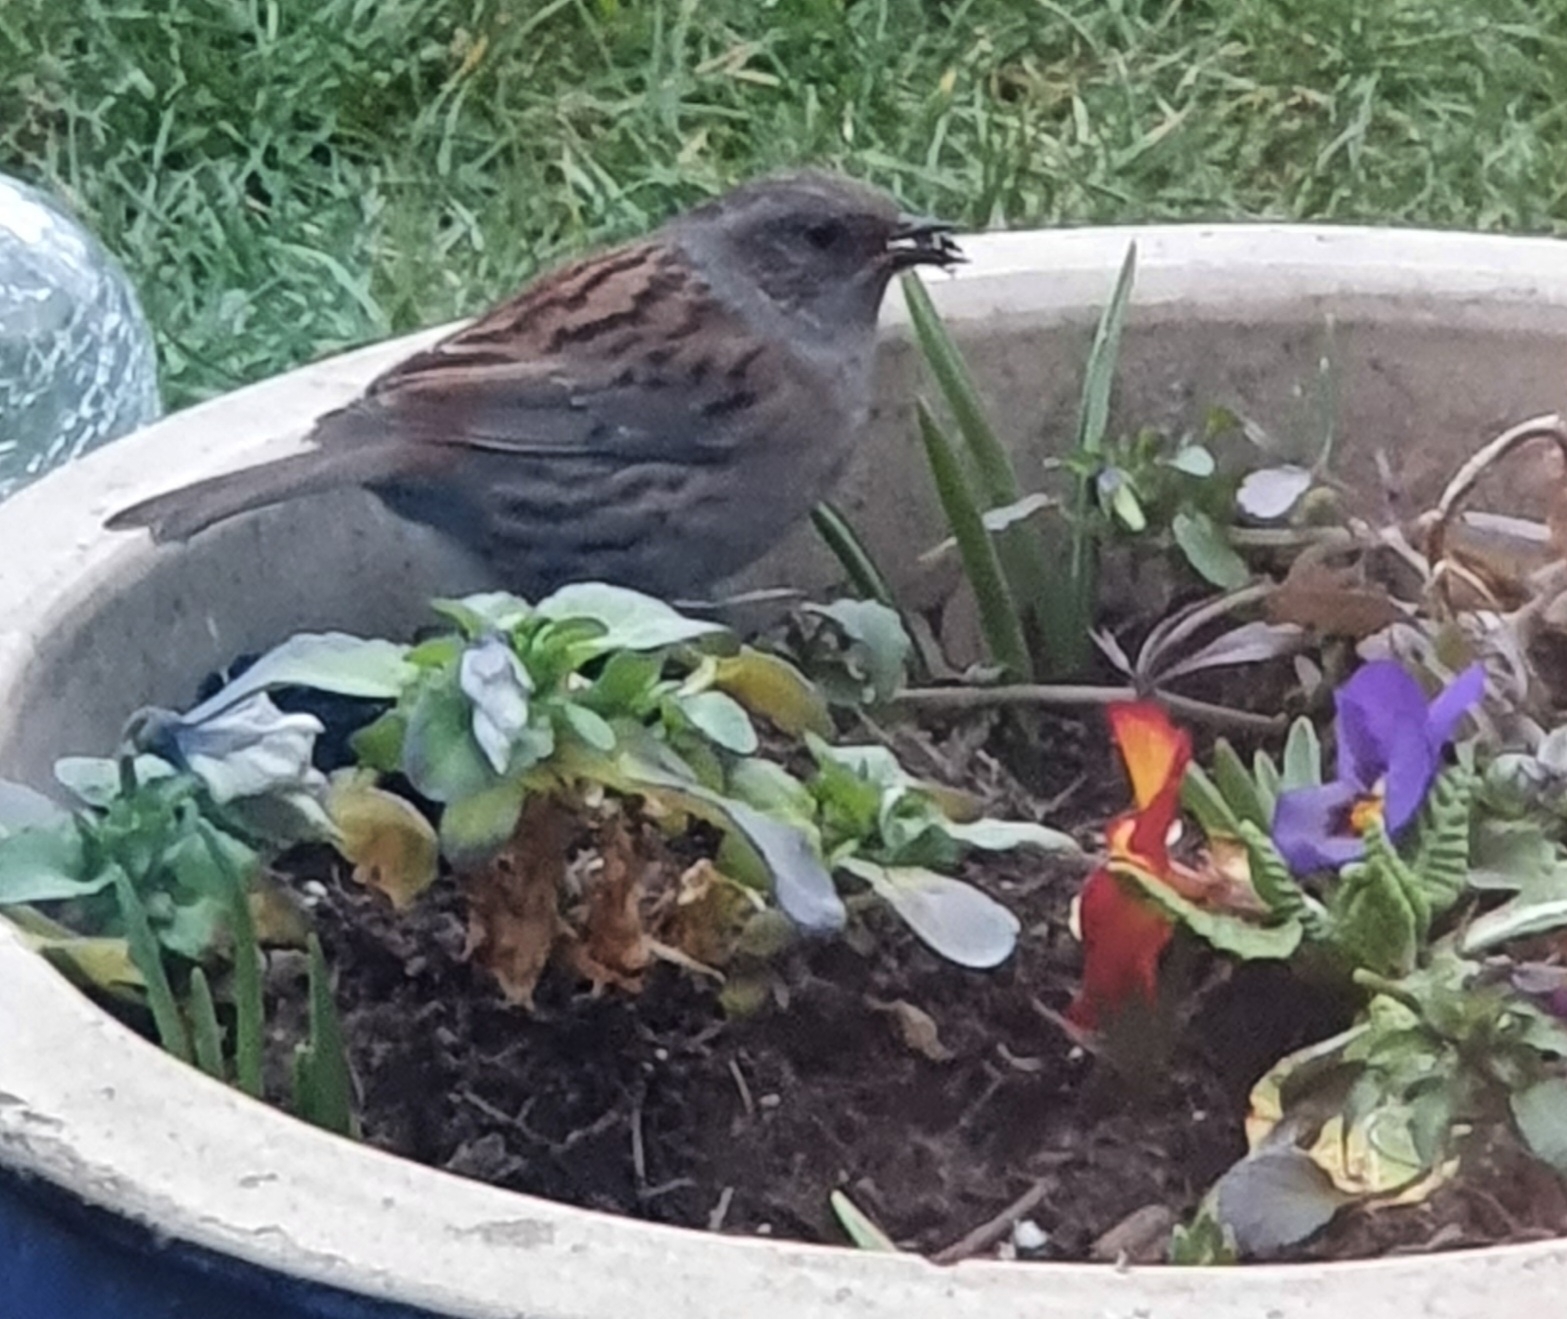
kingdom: Animalia
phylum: Chordata
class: Aves
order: Passeriformes
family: Prunellidae
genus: Prunella
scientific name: Prunella modularis
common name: Dunnock
